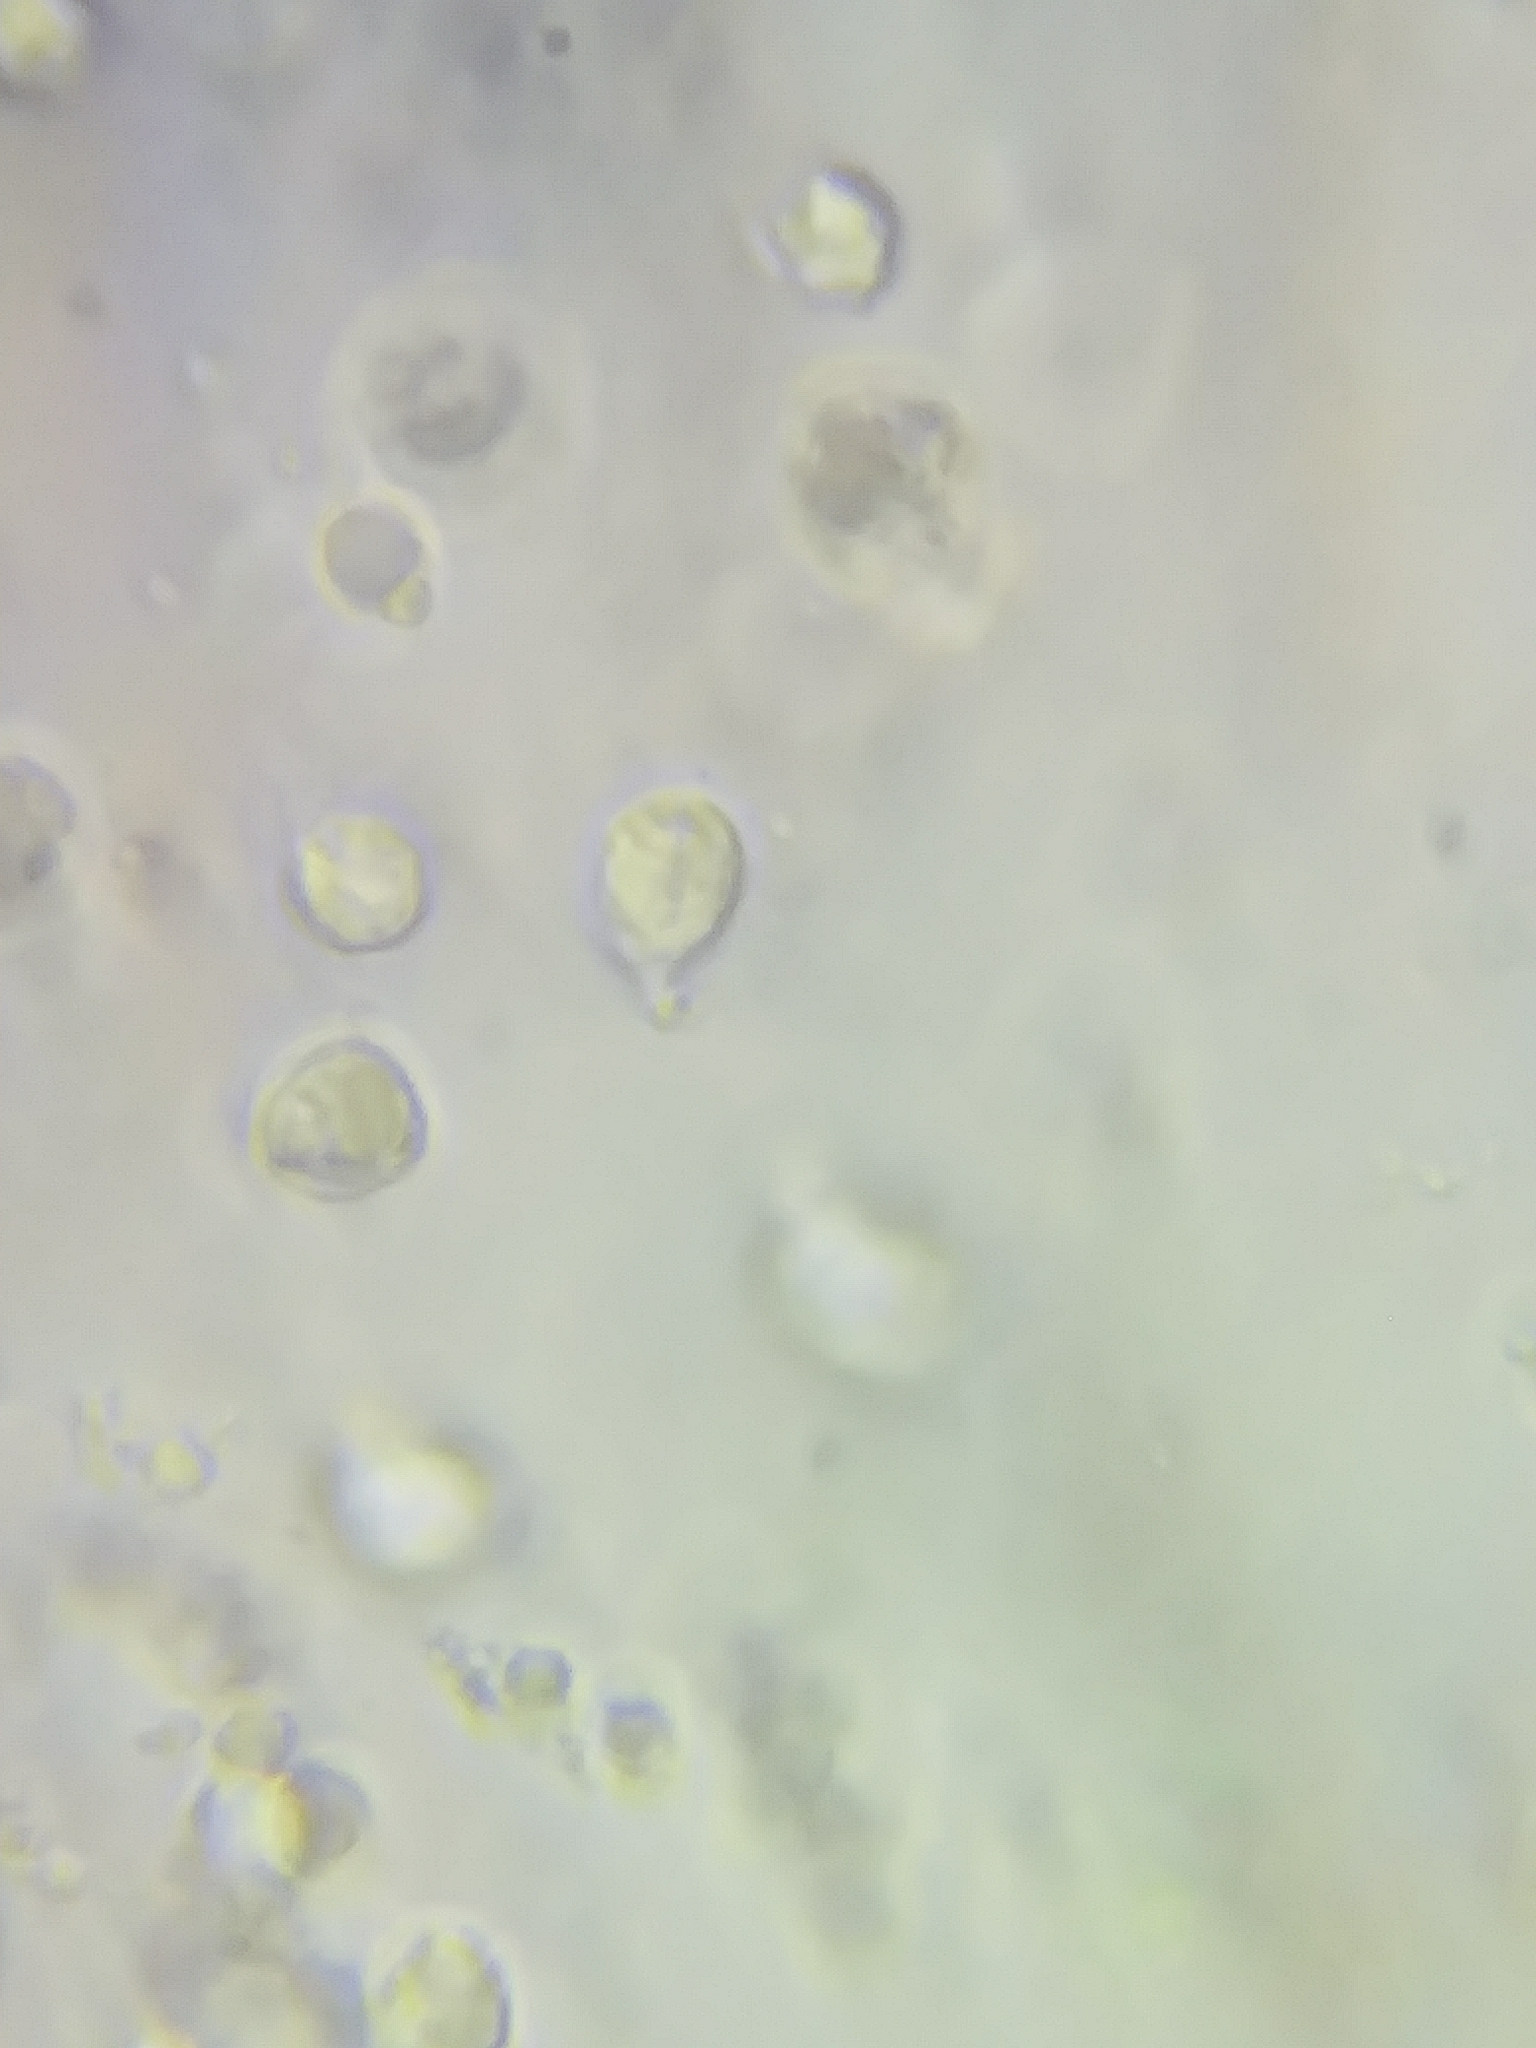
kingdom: Fungi
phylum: Basidiomycota
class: Agaricomycetes
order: Agaricales
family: Hygrophoraceae
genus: Humidicutis
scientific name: Humidicutis marginata
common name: Orange gilled waxcap
